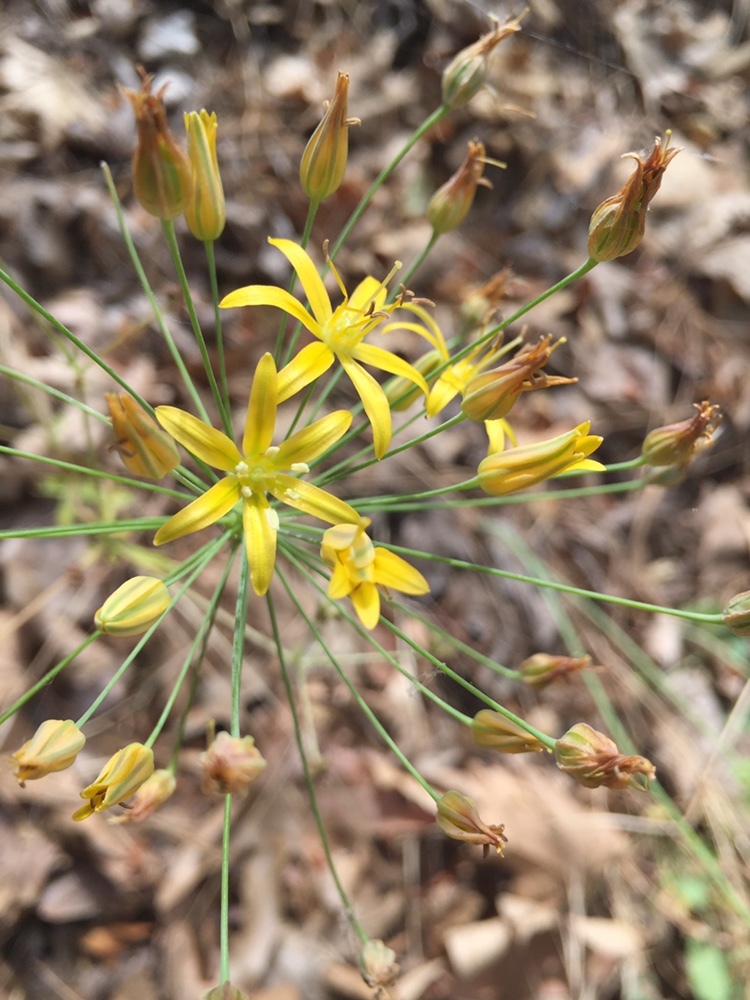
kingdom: Plantae
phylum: Tracheophyta
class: Liliopsida
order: Asparagales
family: Asparagaceae
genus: Bloomeria
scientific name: Bloomeria crocea
